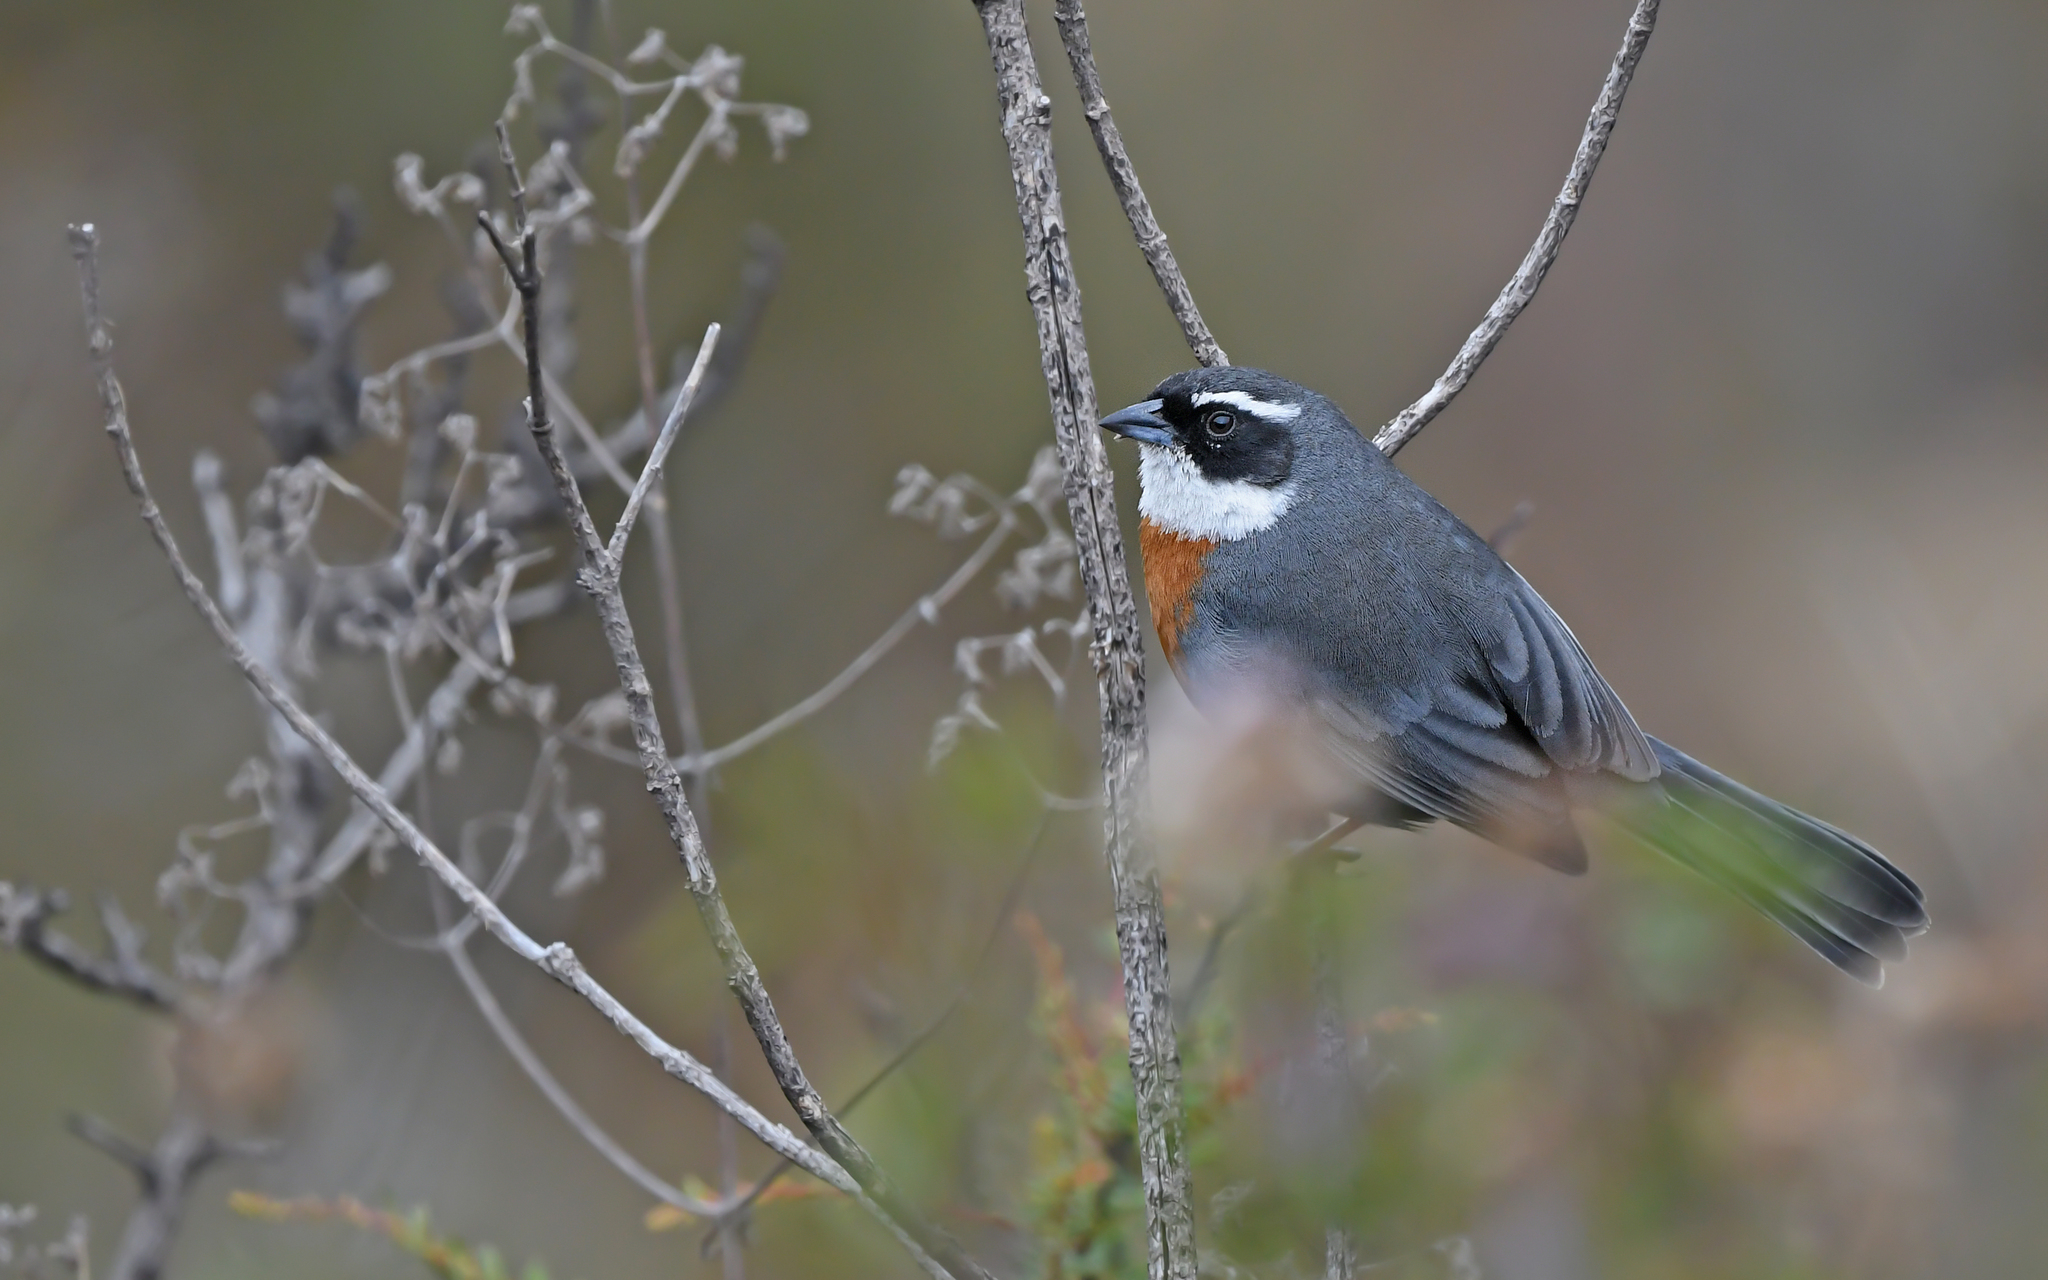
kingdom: Animalia
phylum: Chordata
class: Aves
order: Passeriformes
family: Thraupidae
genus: Poospizopsis
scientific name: Poospizopsis caesar
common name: Chestnut-breasted mountain-finch
